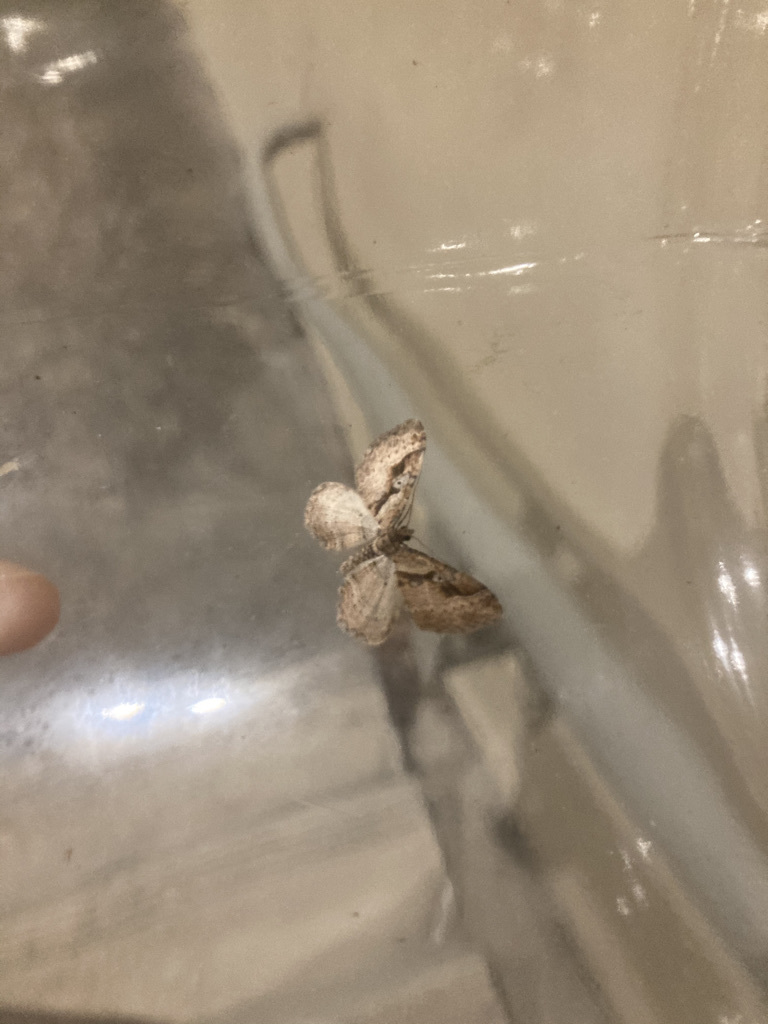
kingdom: Animalia
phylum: Arthropoda
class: Insecta
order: Lepidoptera
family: Geometridae
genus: Costaconvexa
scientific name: Costaconvexa centrostrigaria
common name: Bent-line carpet
